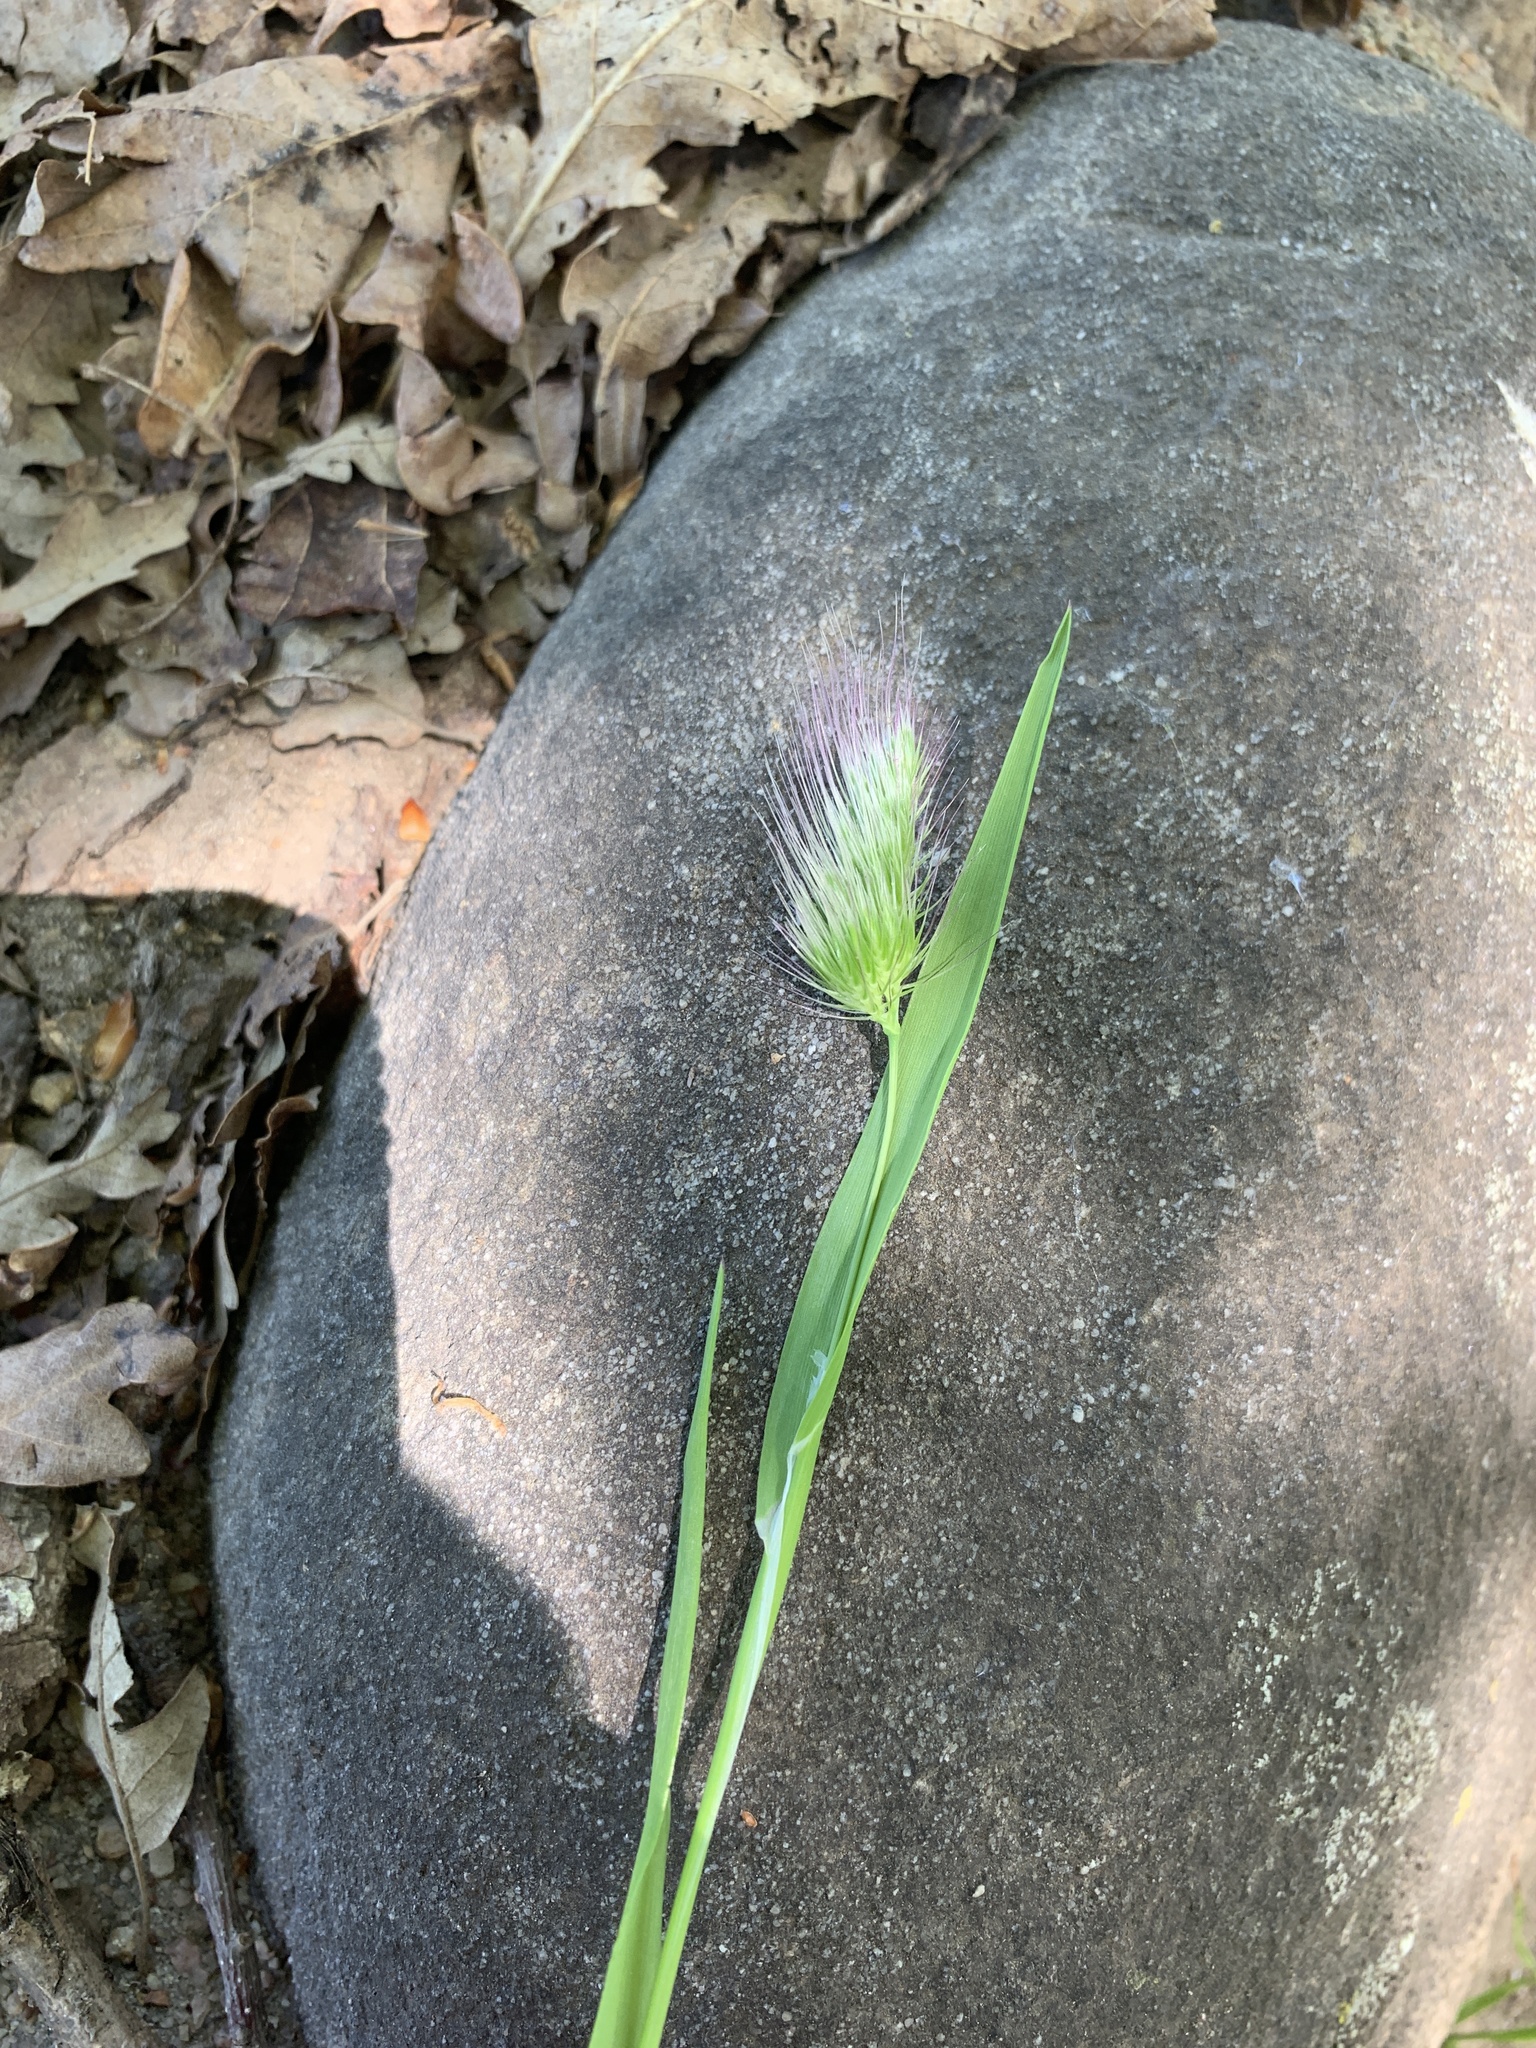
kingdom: Plantae
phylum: Tracheophyta
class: Liliopsida
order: Poales
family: Poaceae
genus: Cynosurus
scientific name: Cynosurus echinatus
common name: Rough dog's-tail
